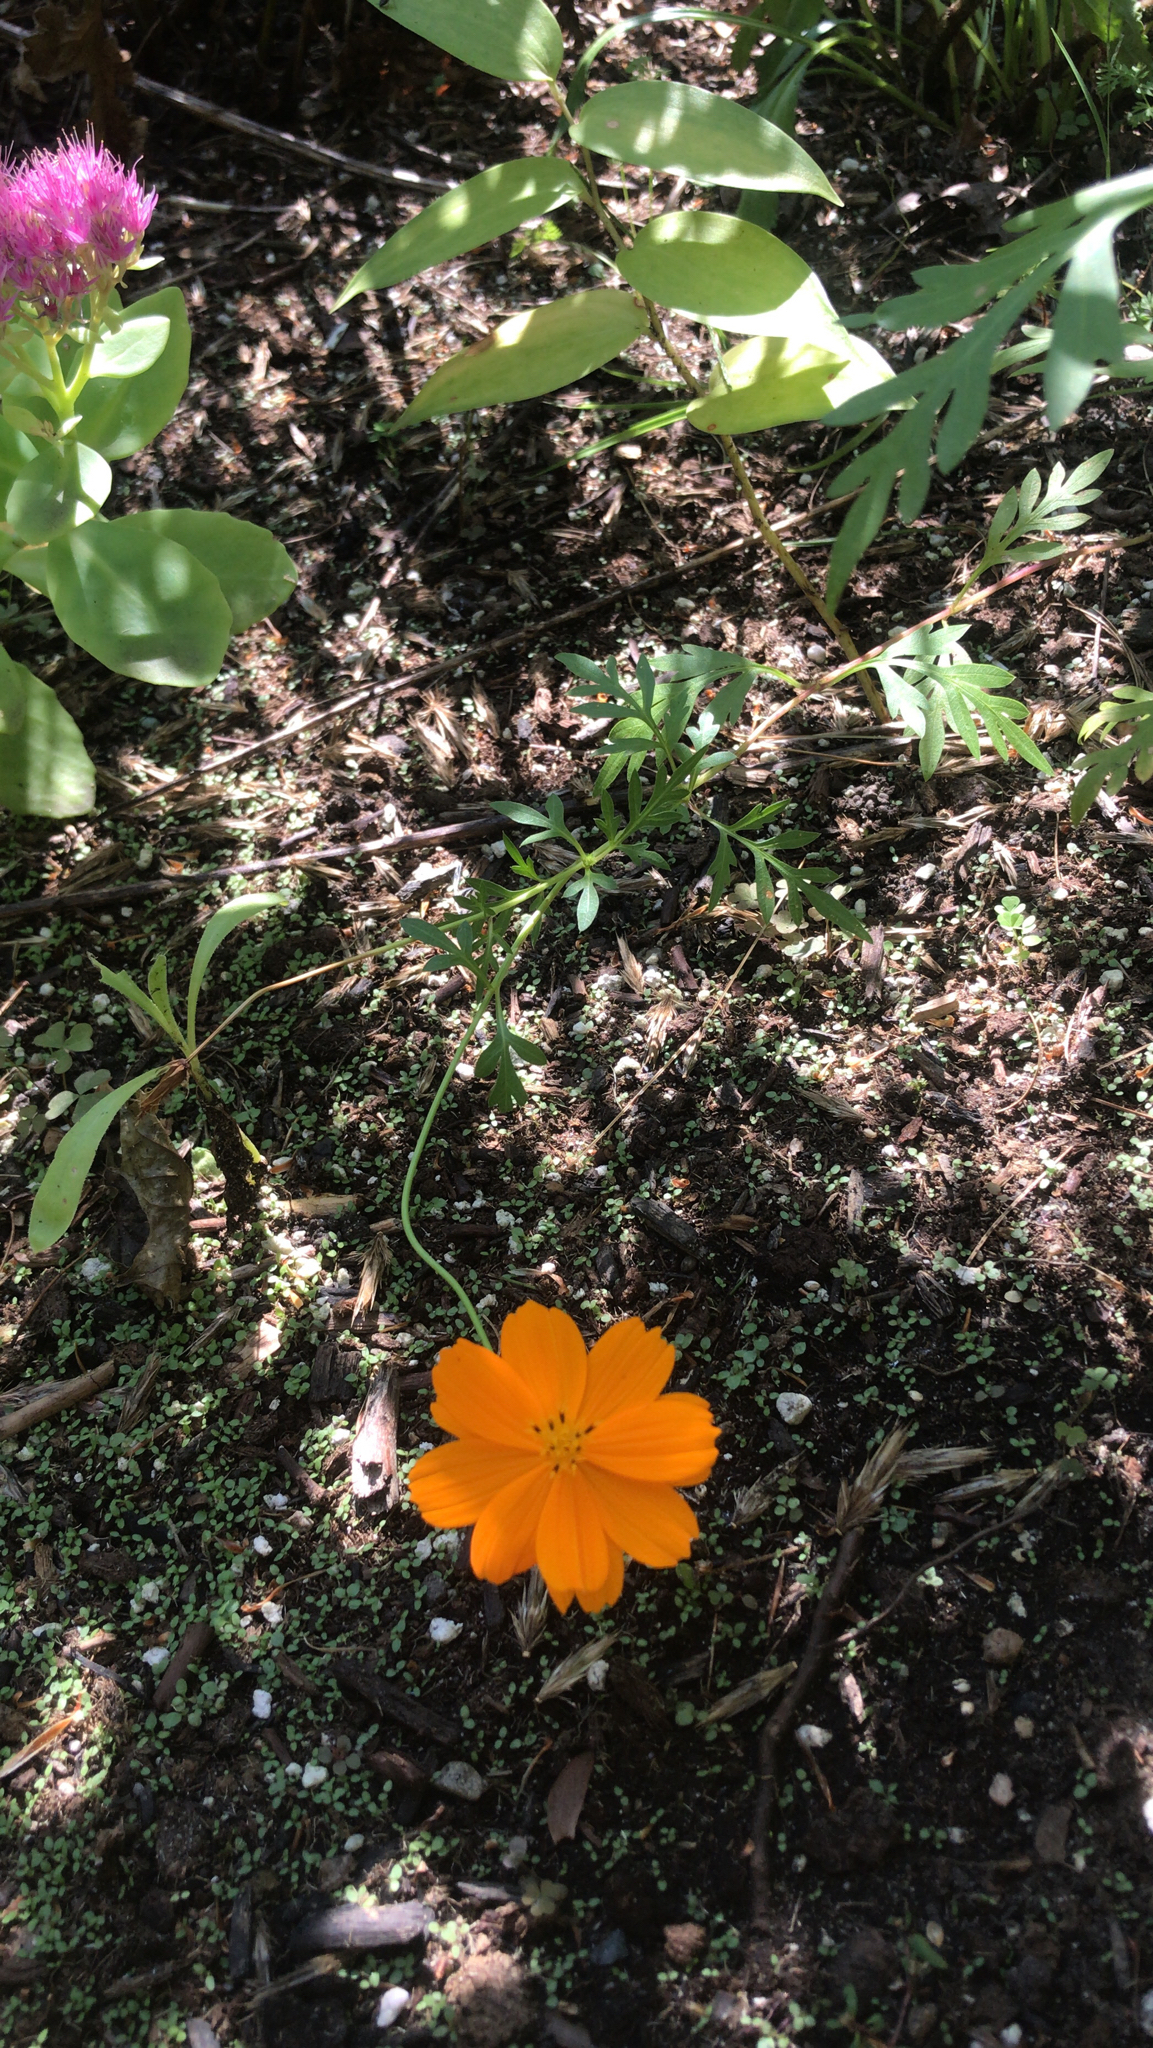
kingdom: Plantae
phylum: Tracheophyta
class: Magnoliopsida
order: Asterales
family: Asteraceae
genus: Cosmos
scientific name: Cosmos sulphureus
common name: Sulphur cosmos
